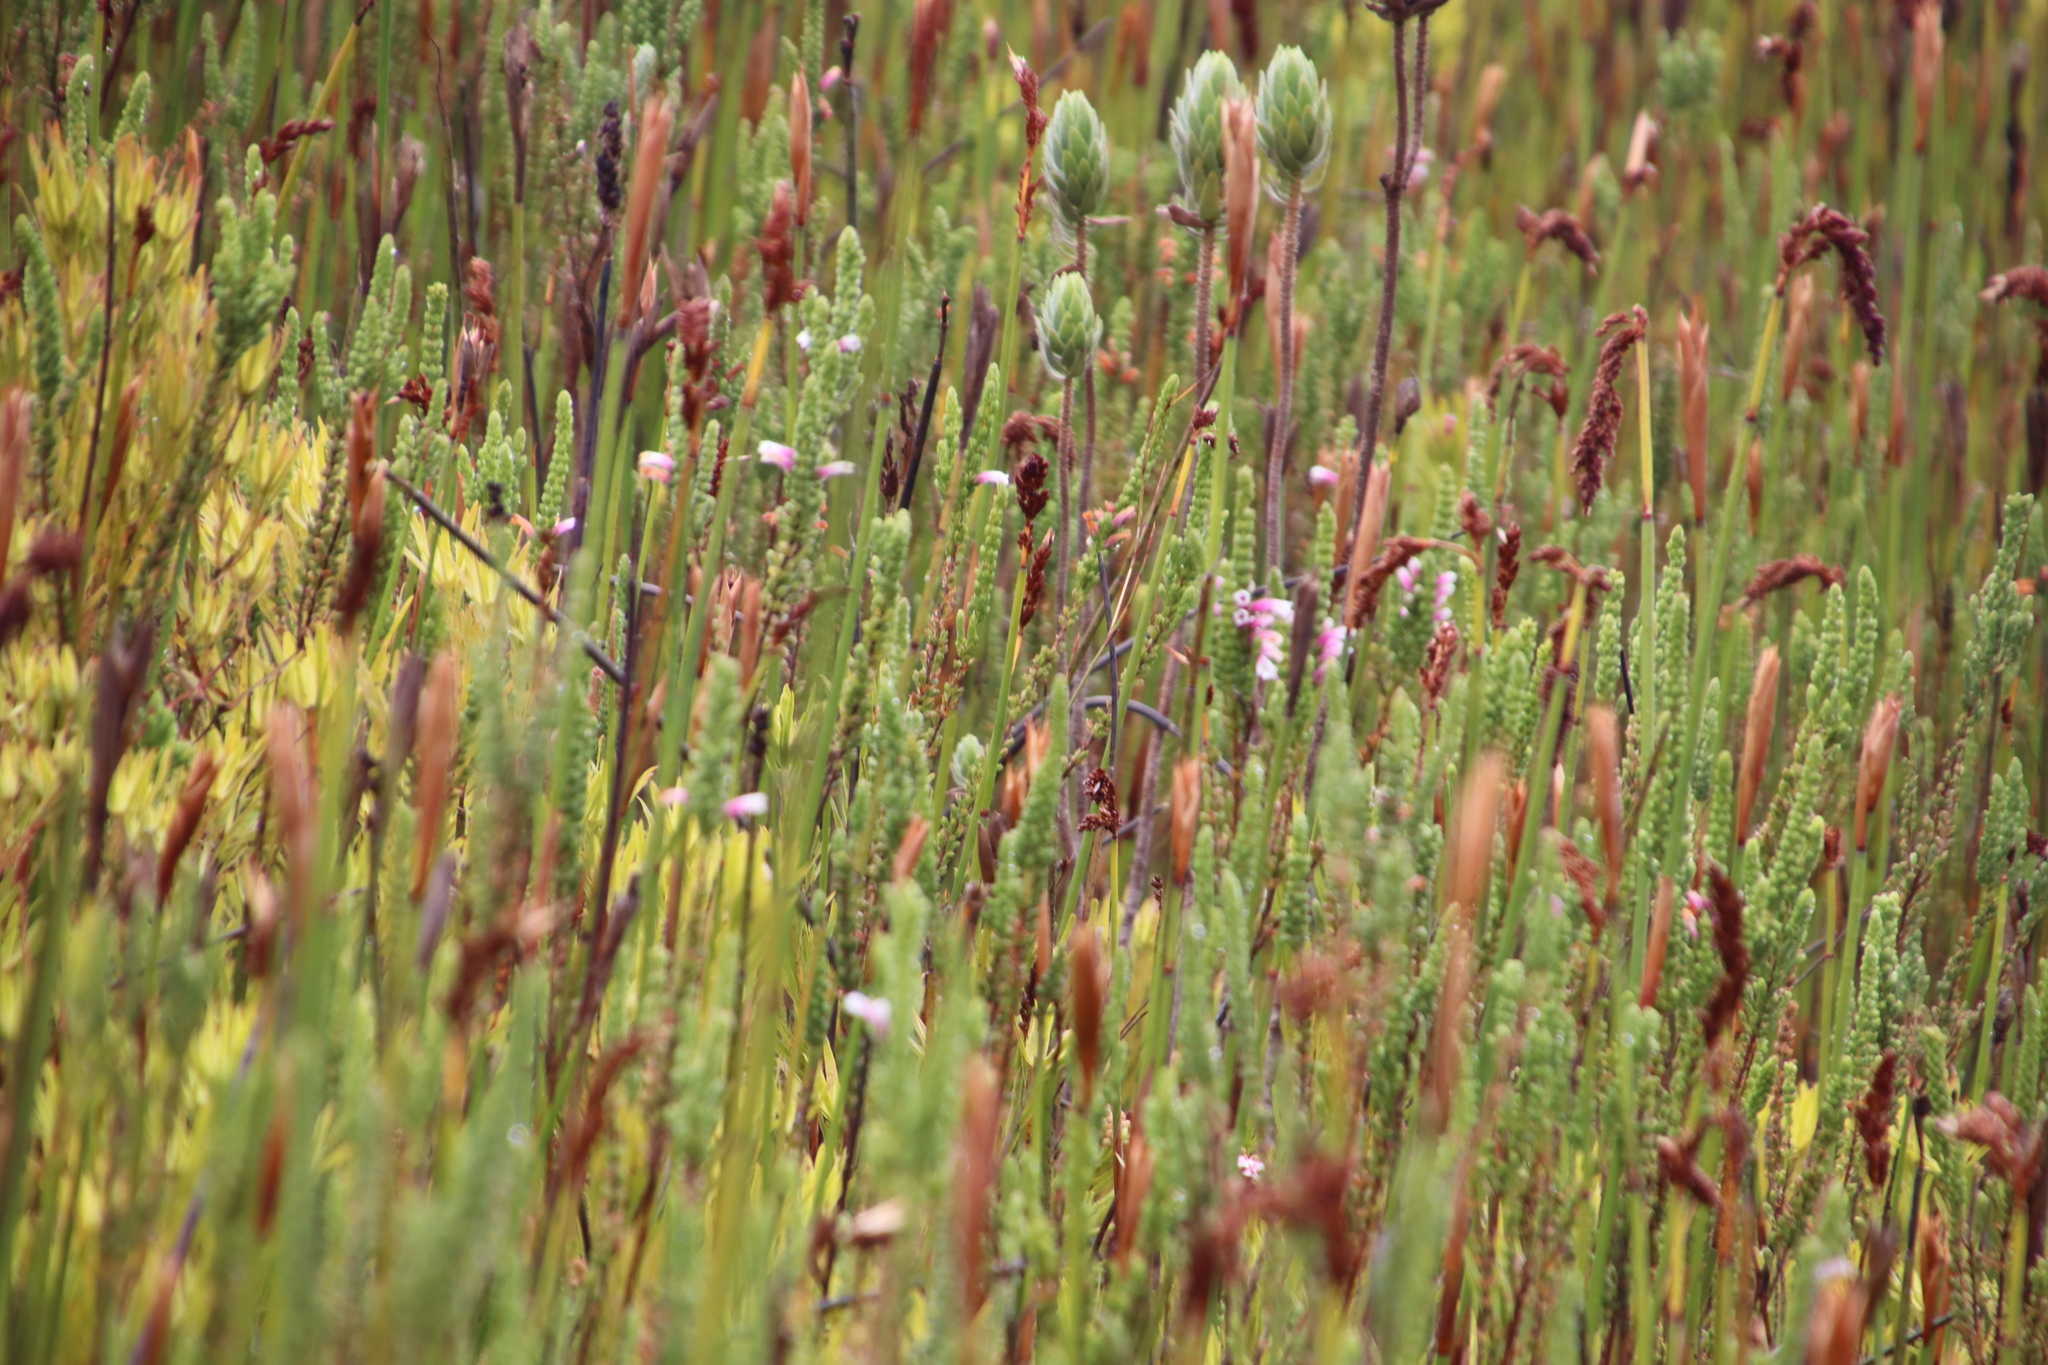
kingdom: Plantae
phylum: Tracheophyta
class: Magnoliopsida
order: Ericales
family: Ericaceae
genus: Erica
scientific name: Erica macowanii
